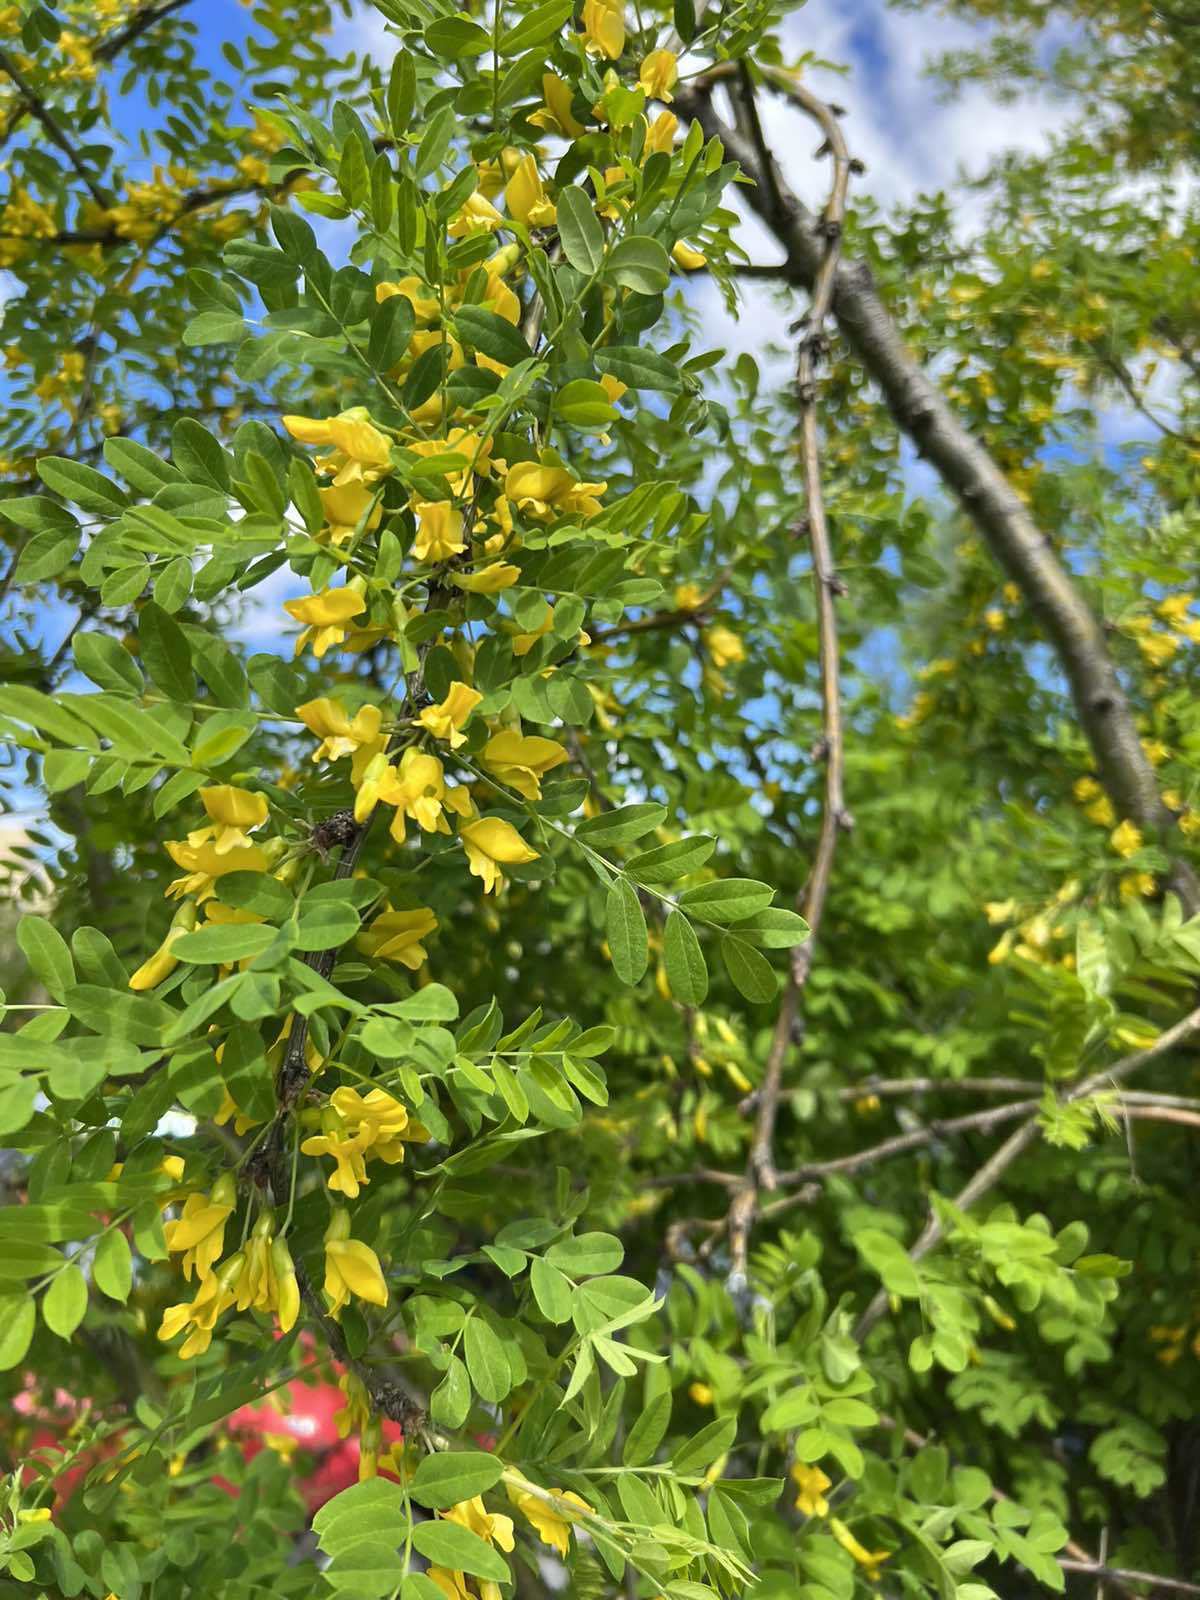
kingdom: Plantae
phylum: Tracheophyta
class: Magnoliopsida
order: Fabales
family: Fabaceae
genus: Caragana
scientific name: Caragana arborescens
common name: Siberian peashrub
